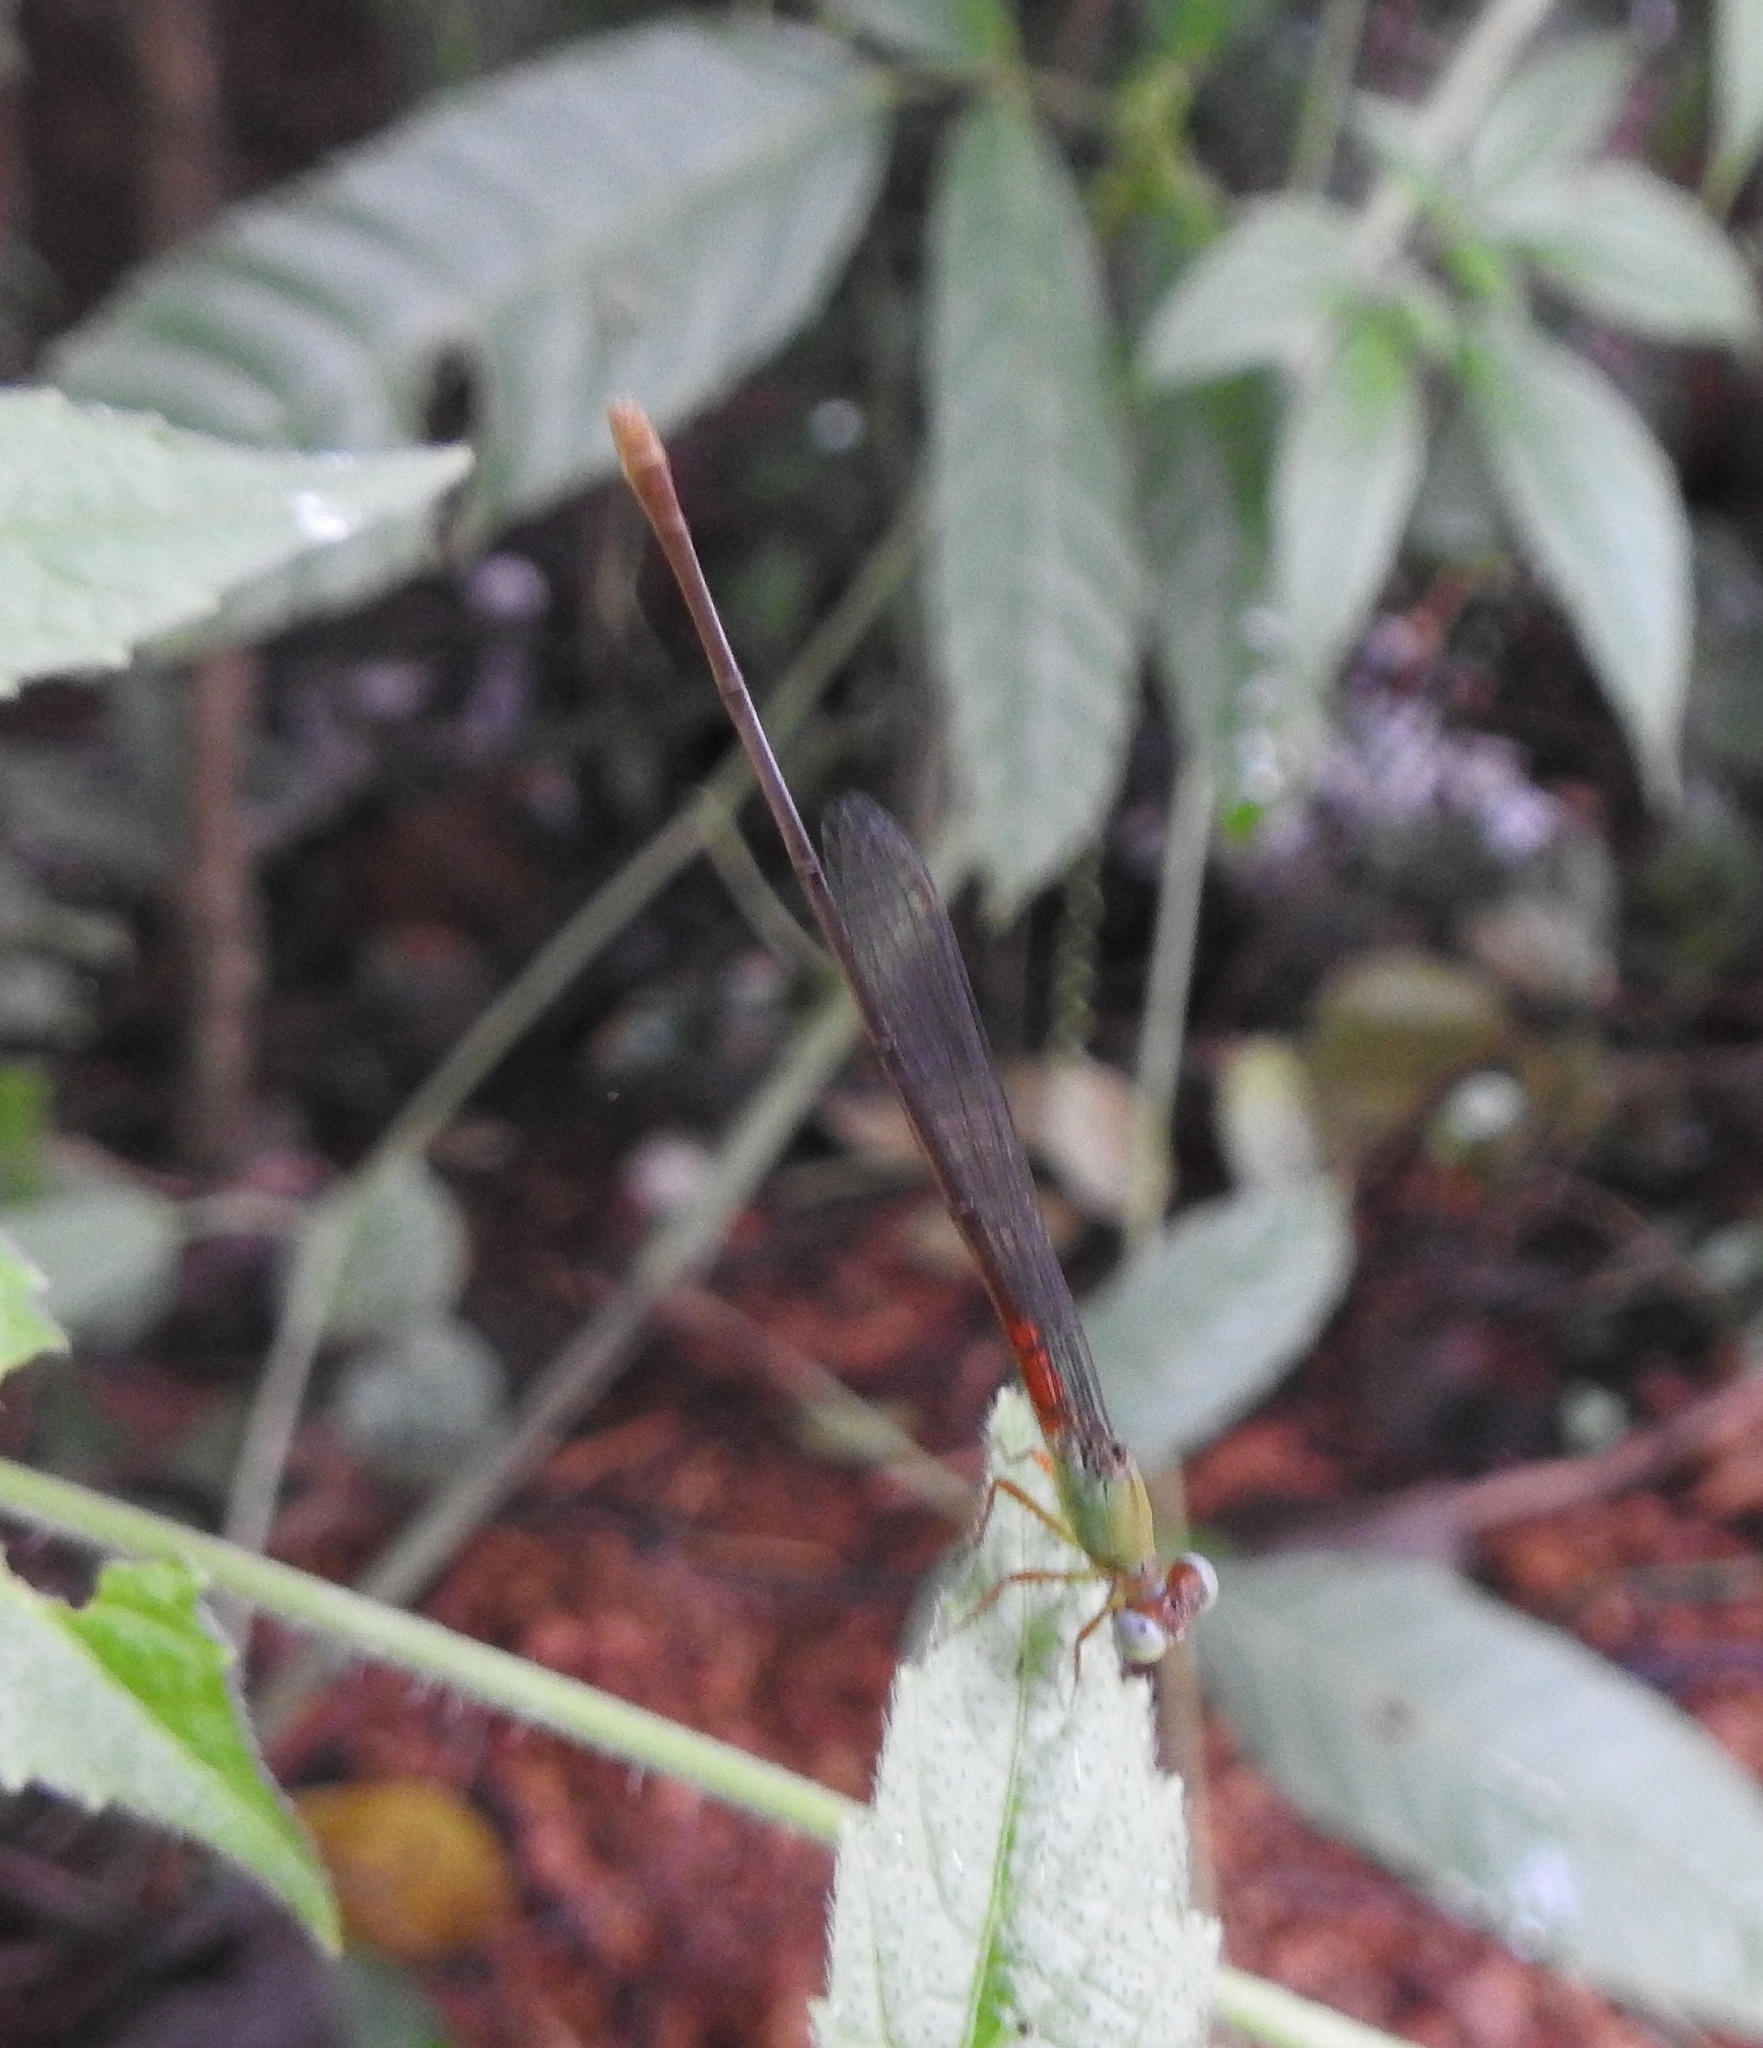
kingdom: Animalia
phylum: Arthropoda
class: Insecta
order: Odonata
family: Coenagrionidae
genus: Ceriagrion
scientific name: Ceriagrion cerinorubellum
